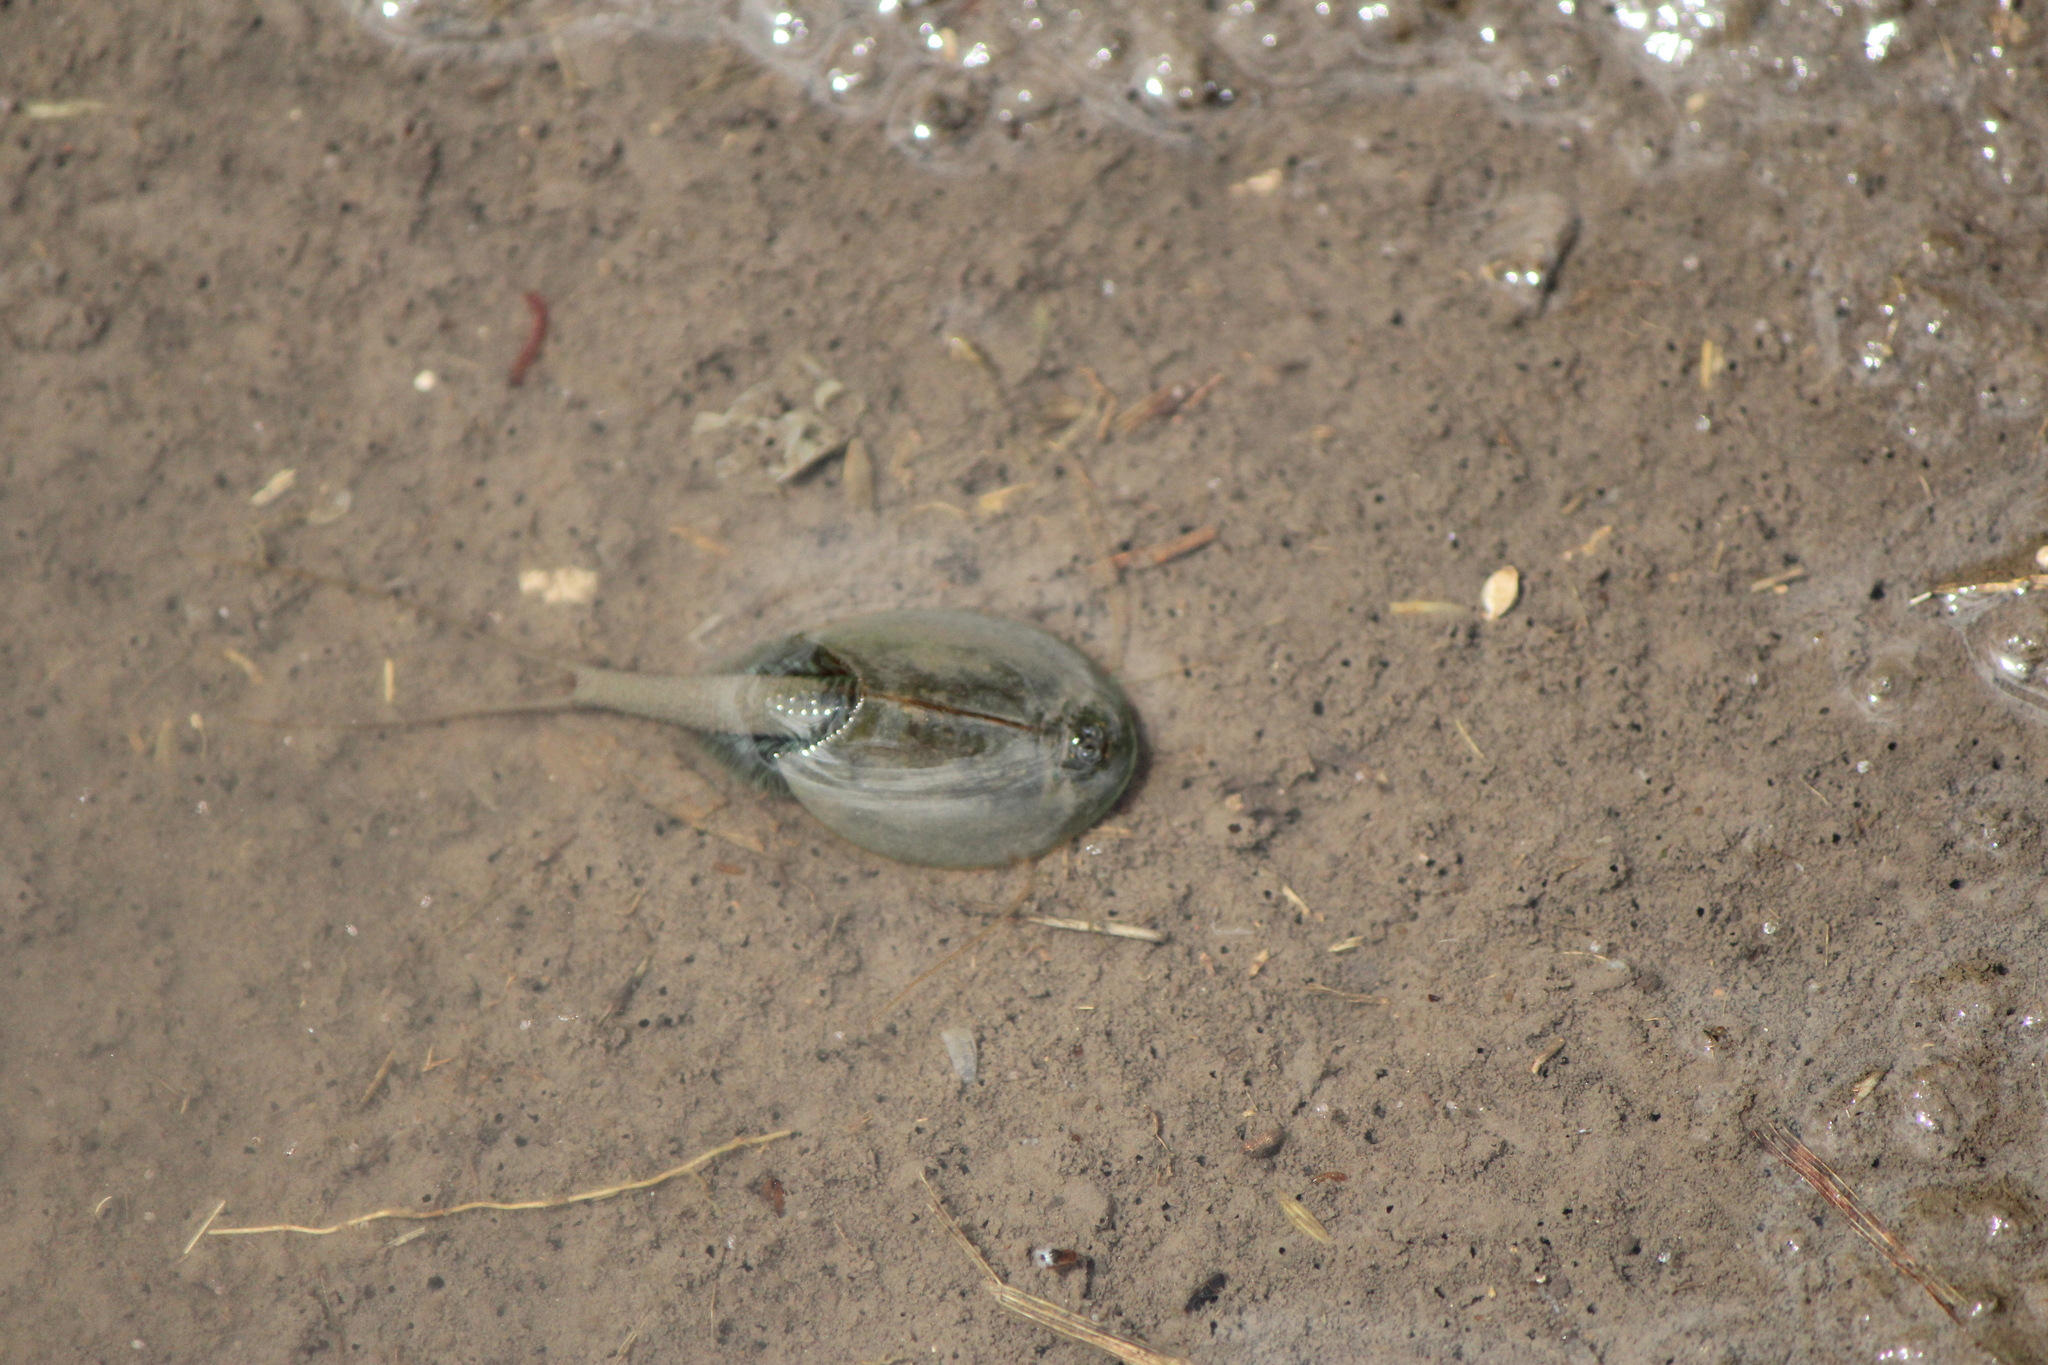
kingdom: Animalia
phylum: Arthropoda
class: Branchiopoda
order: Notostraca
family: Triopsidae
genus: Triops
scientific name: Triops longicaudatus
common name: Summer tadpole shrimp
